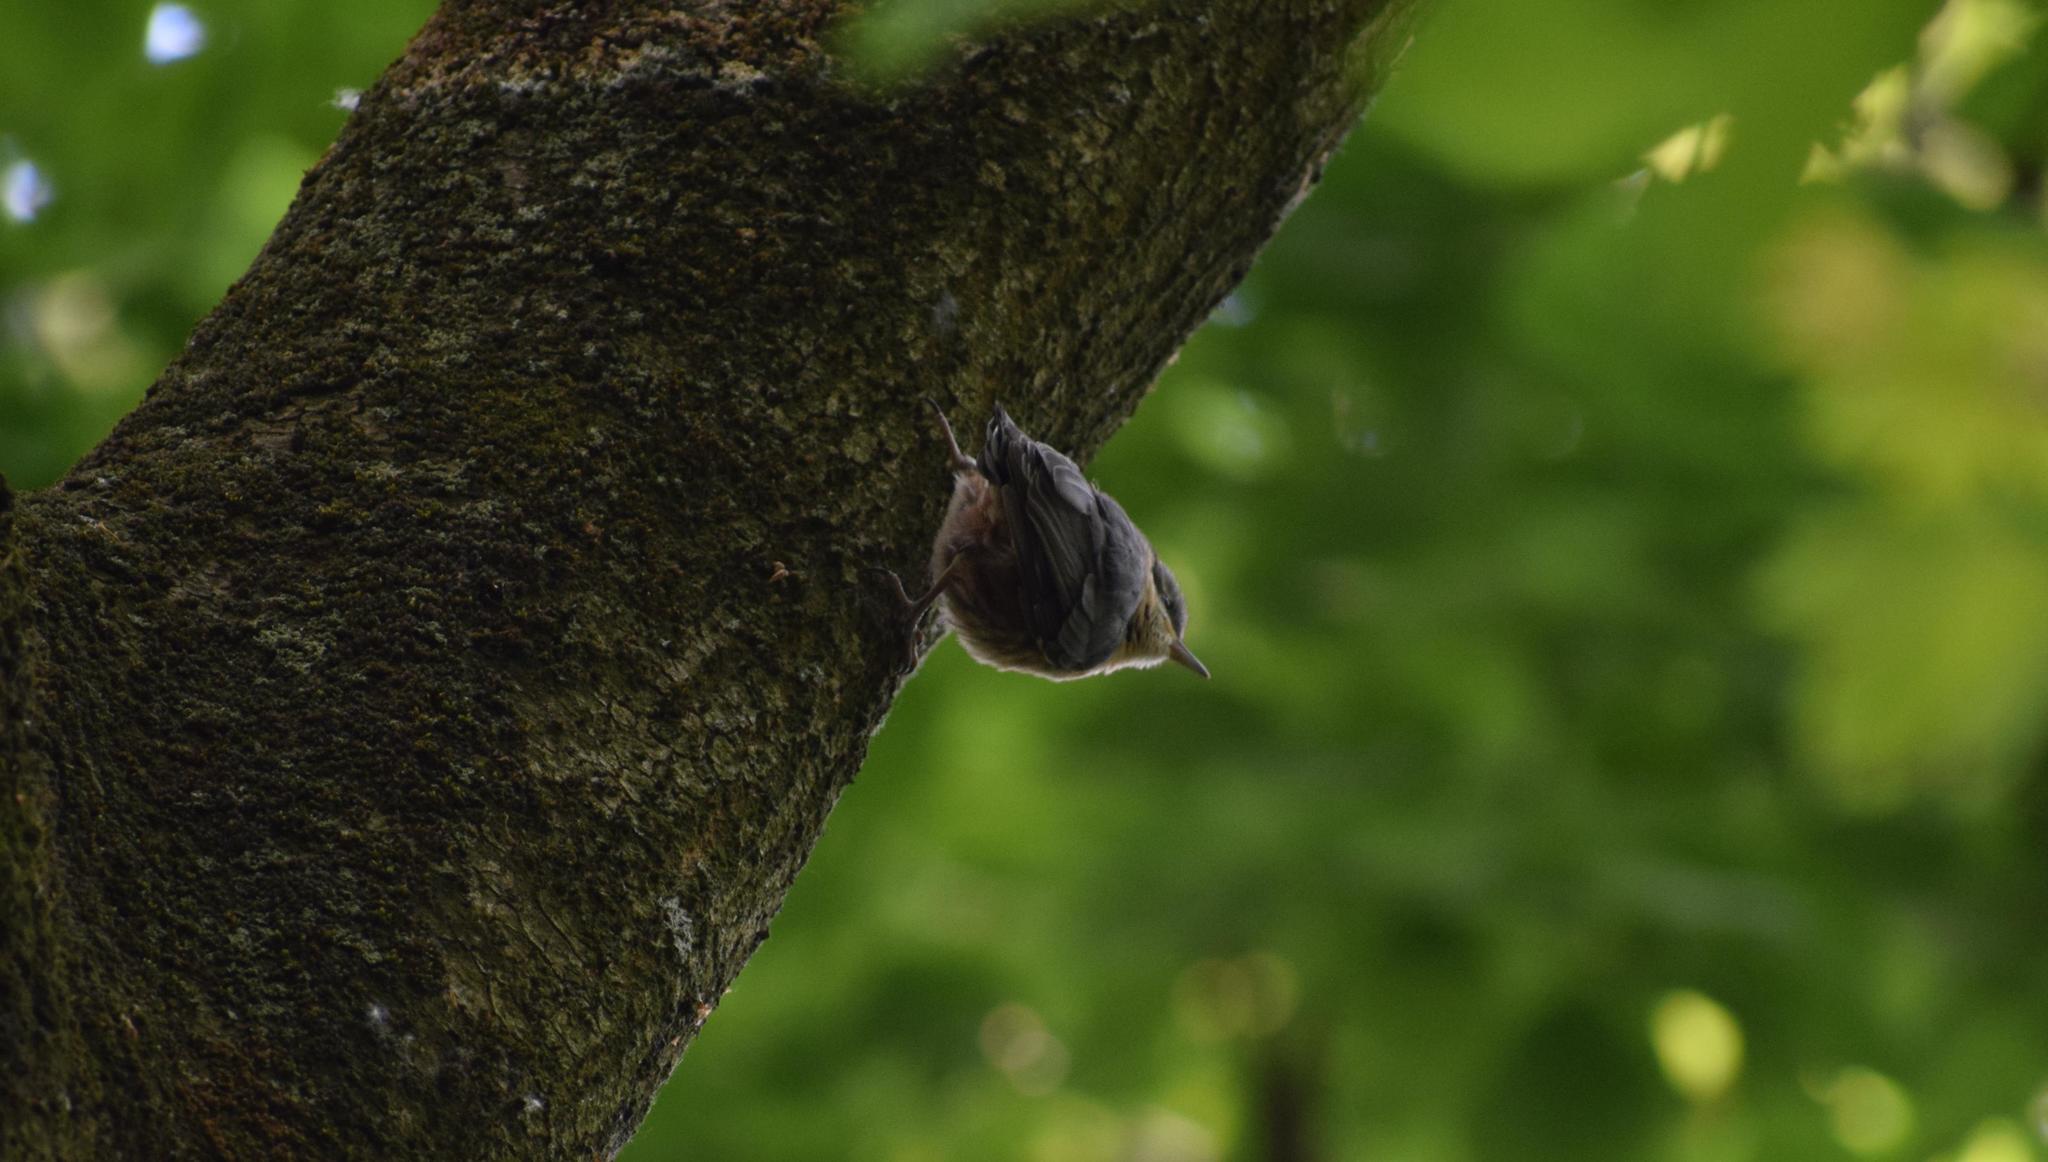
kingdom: Animalia
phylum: Chordata
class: Aves
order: Passeriformes
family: Sittidae
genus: Sitta
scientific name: Sitta europaea
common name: Eurasian nuthatch
